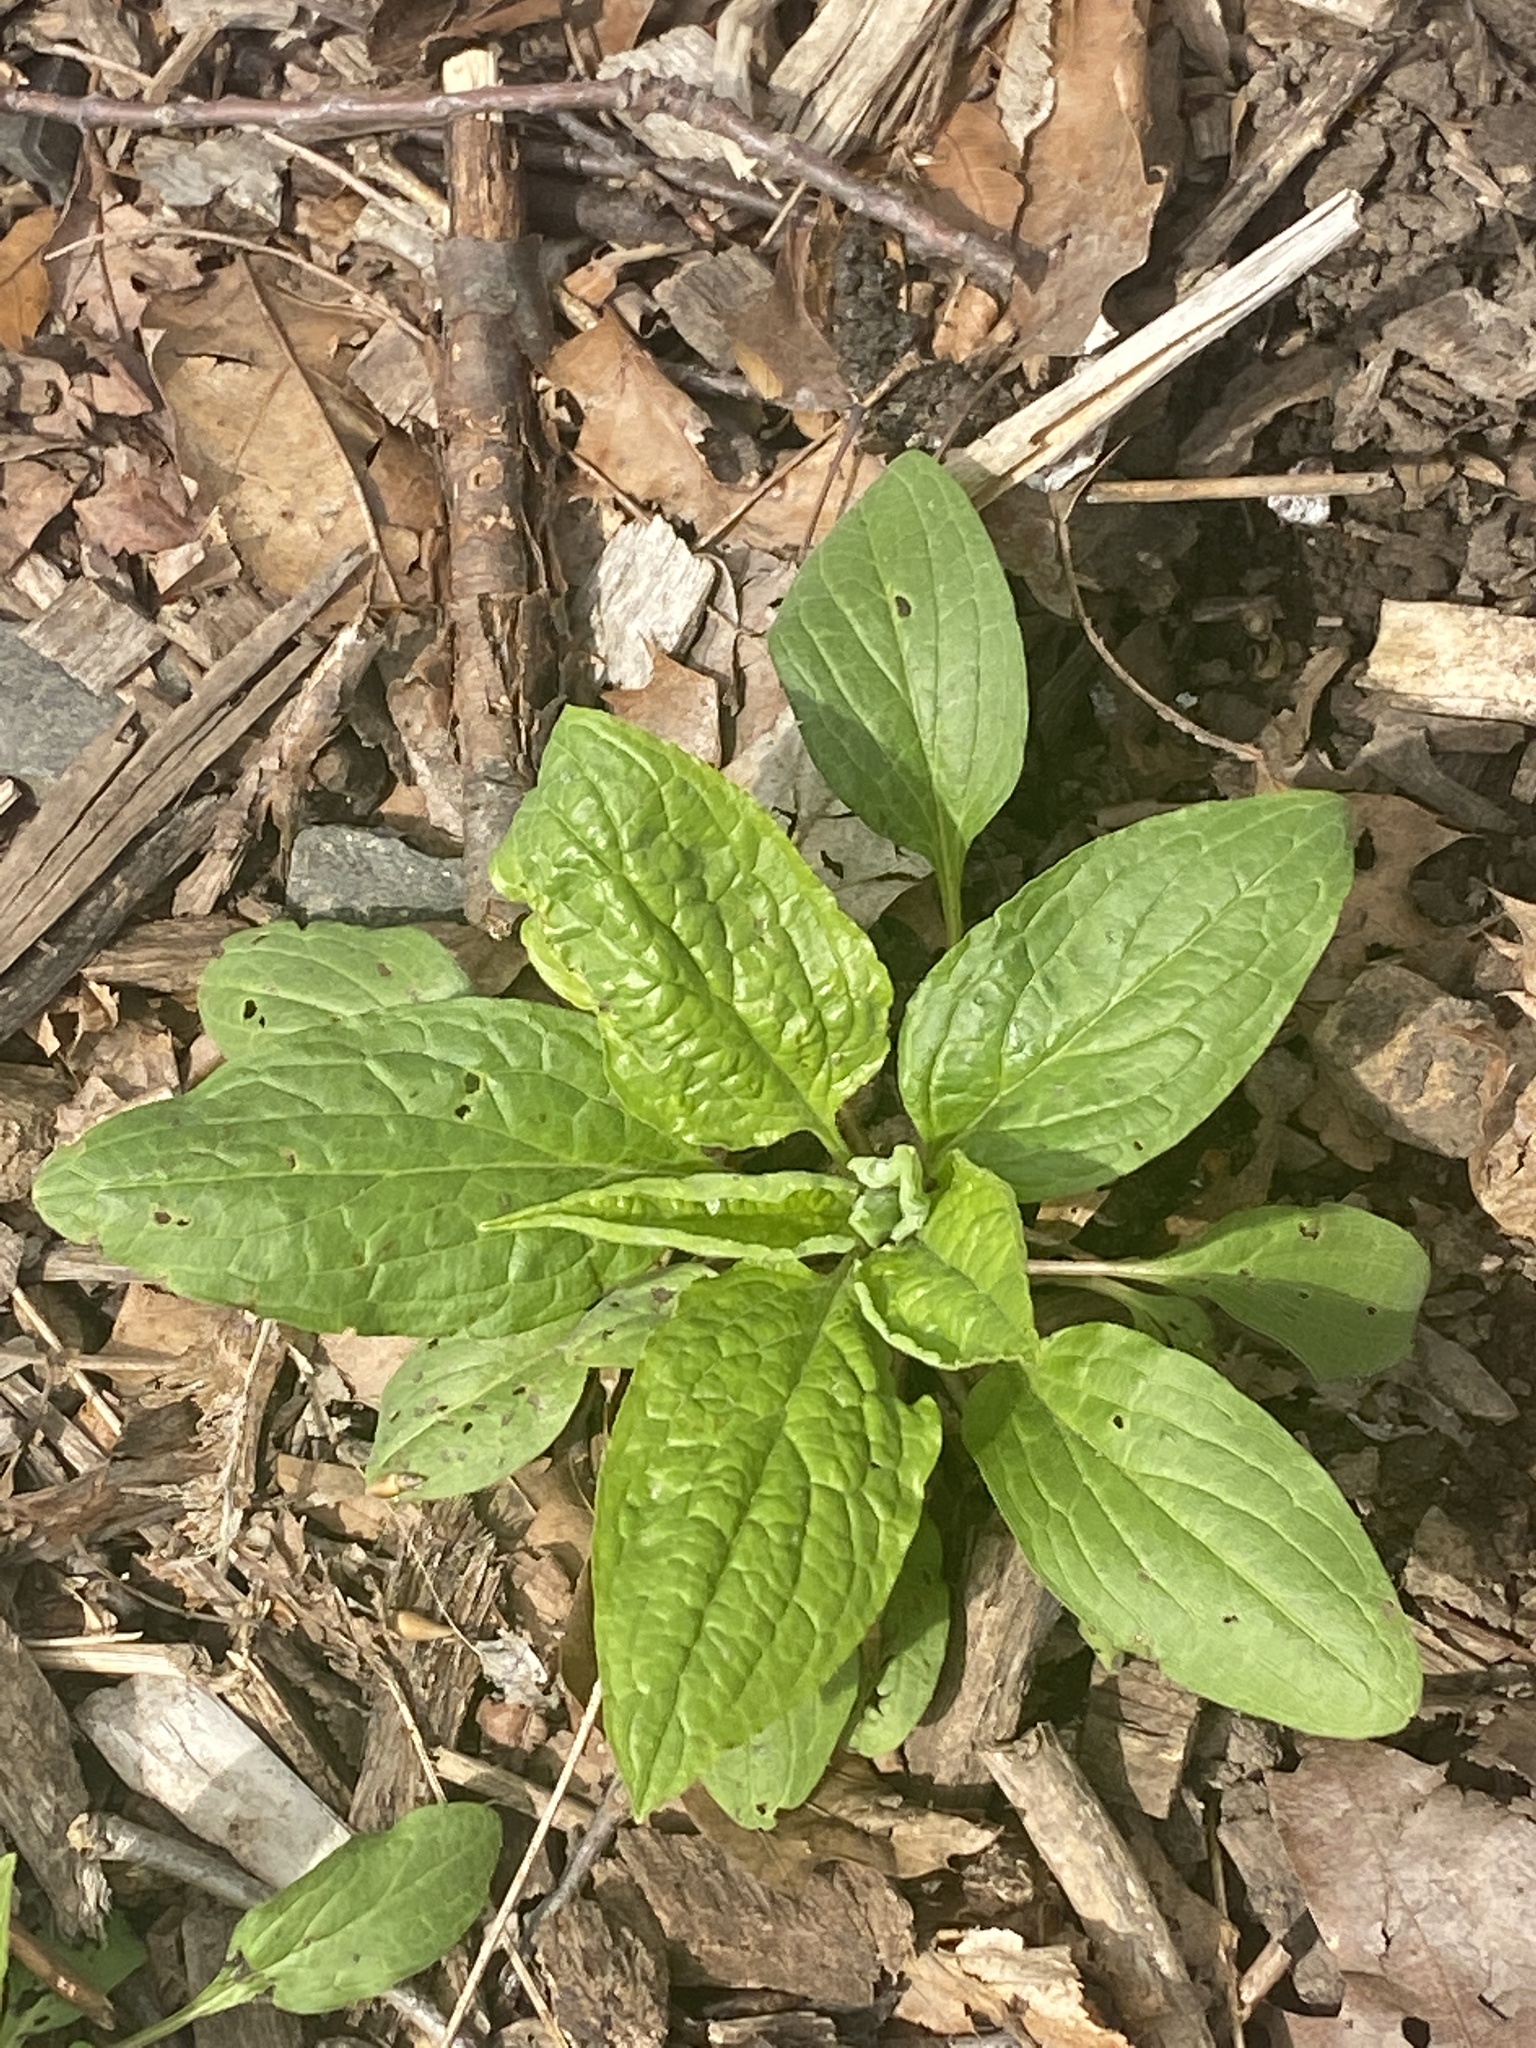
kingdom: Plantae
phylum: Tracheophyta
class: Magnoliopsida
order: Boraginales
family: Boraginaceae
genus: Hackelia
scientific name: Hackelia virginiana
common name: Beggar's-lice
